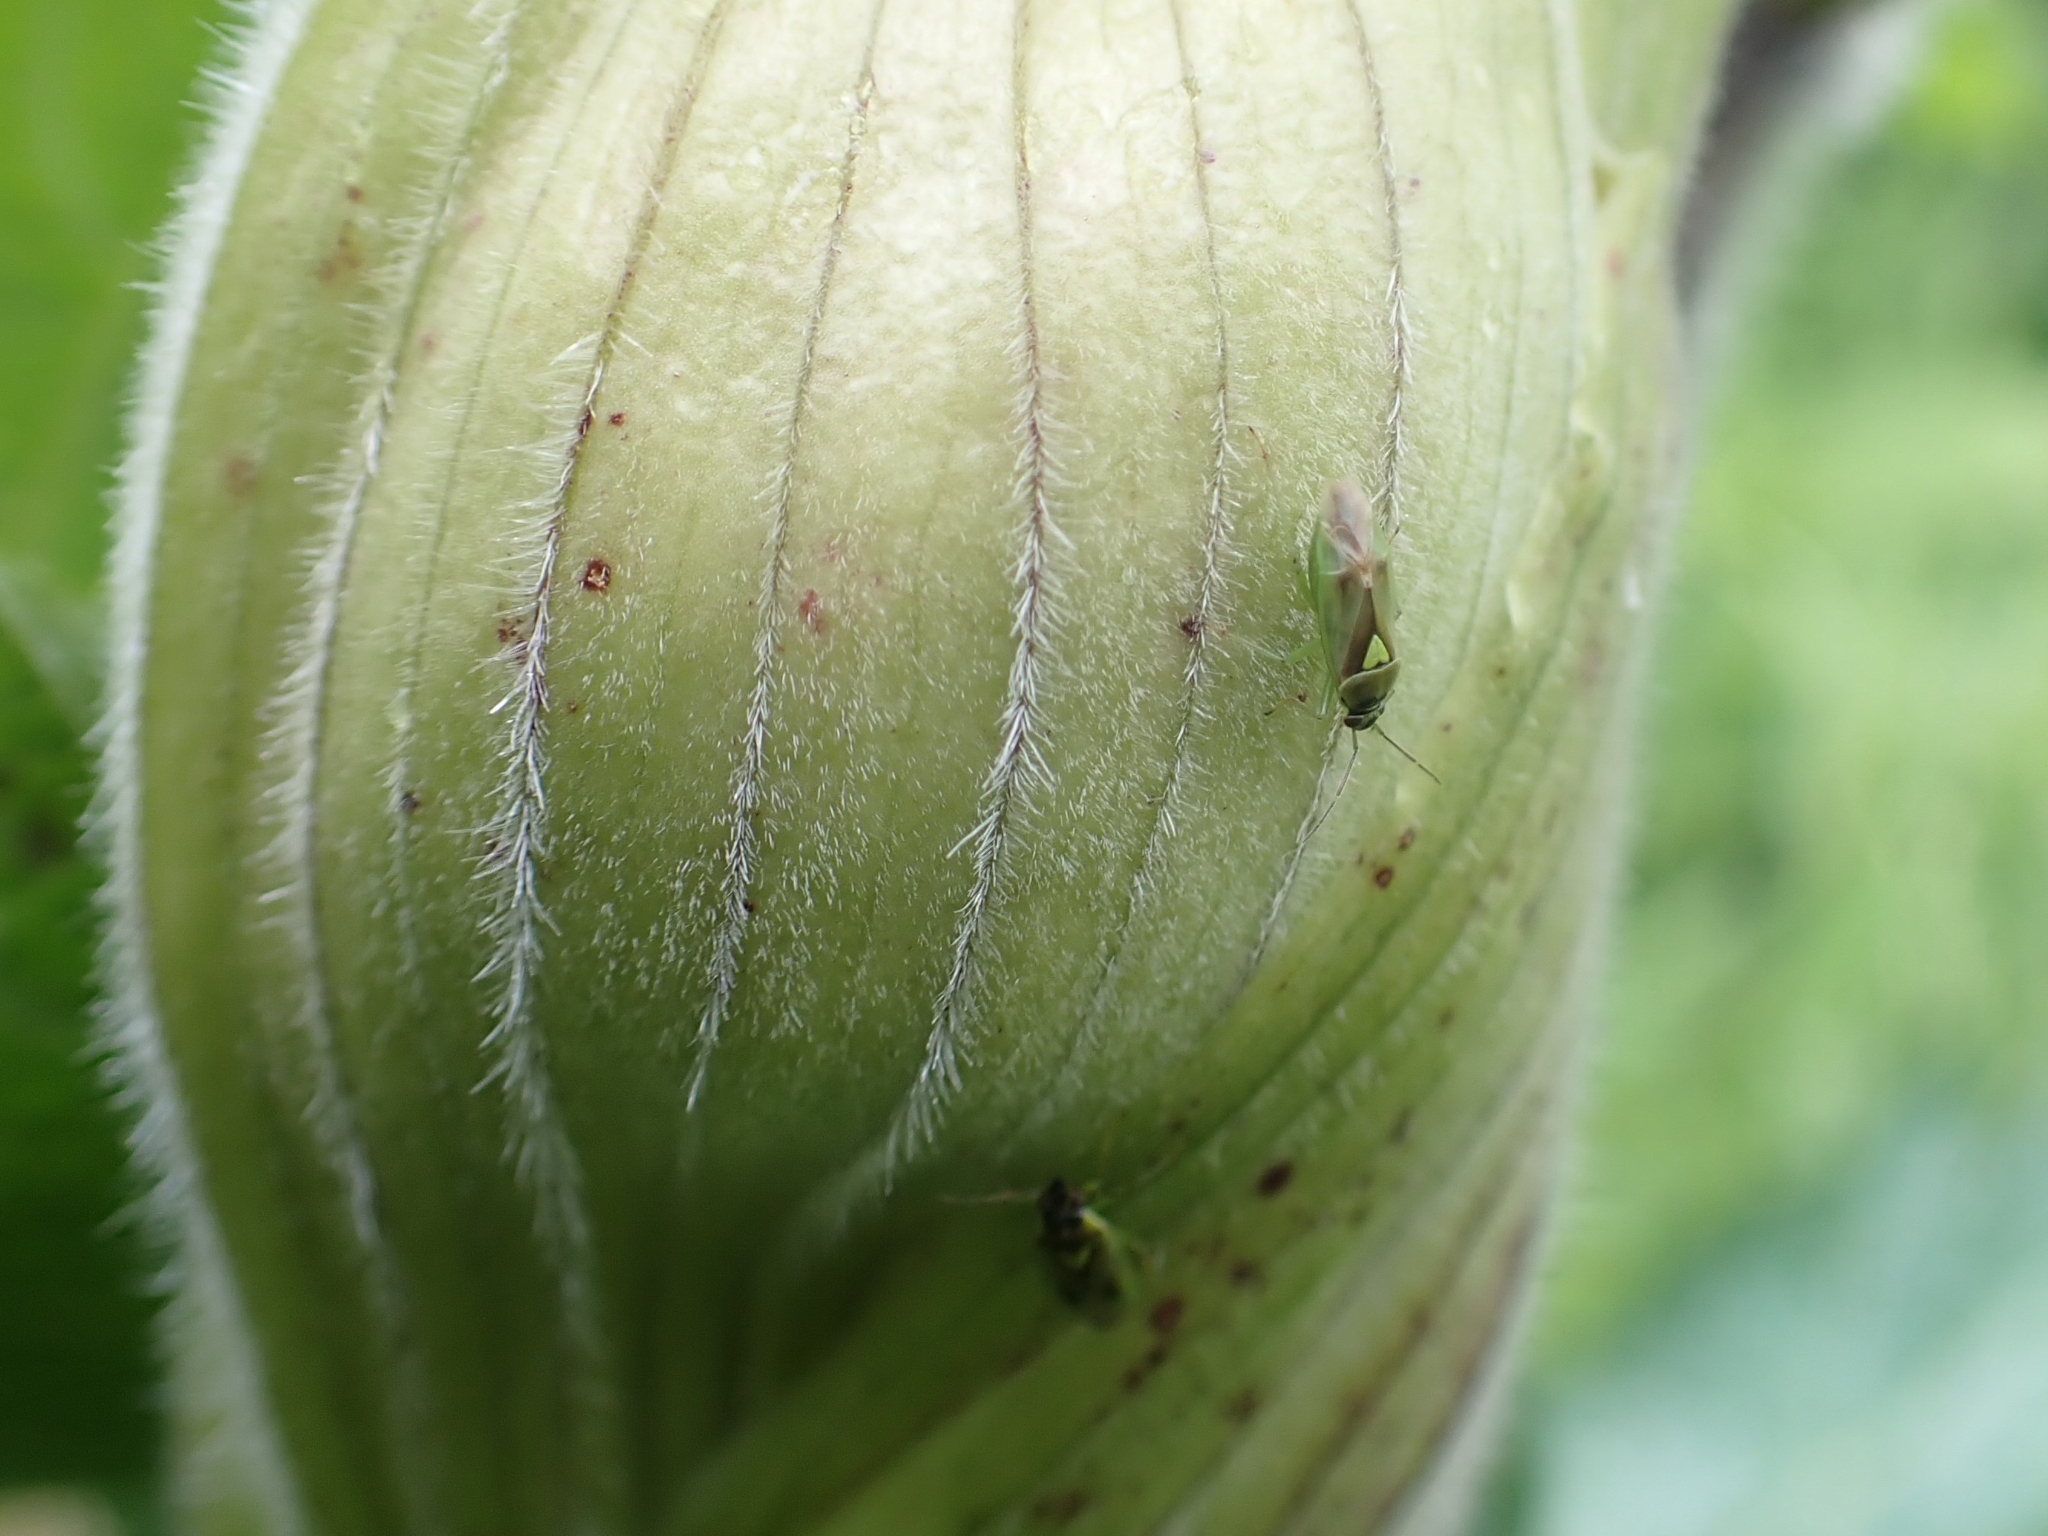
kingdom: Animalia
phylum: Arthropoda
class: Insecta
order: Hemiptera
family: Miridae
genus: Orthops
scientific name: Orthops scutellatus
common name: Plant bug
